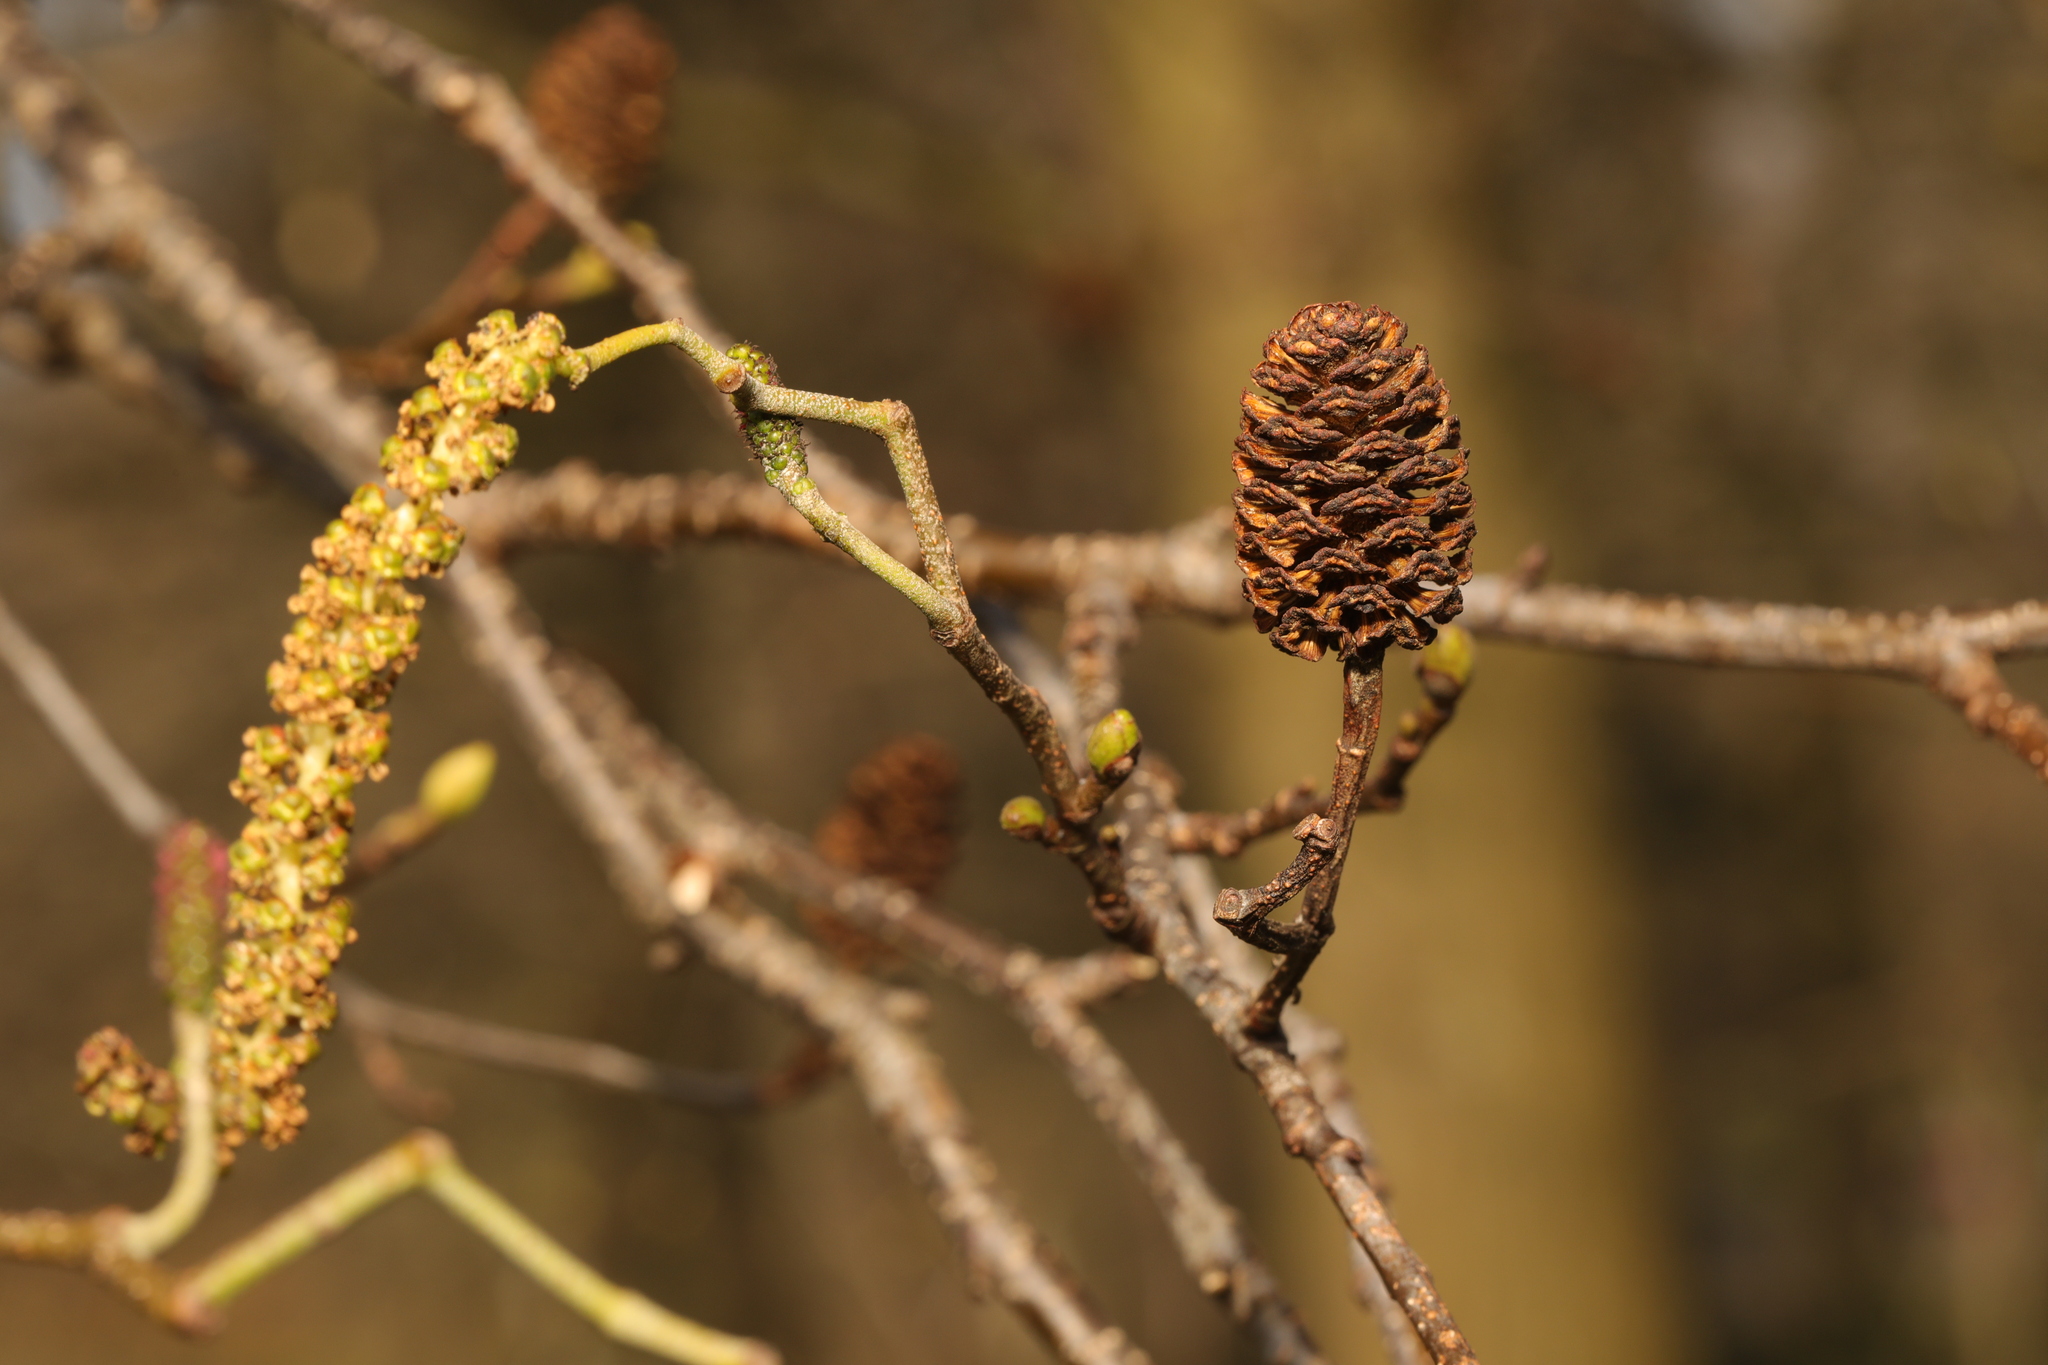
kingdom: Plantae
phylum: Tracheophyta
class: Magnoliopsida
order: Fagales
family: Betulaceae
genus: Alnus
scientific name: Alnus glutinosa
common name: Black alder
